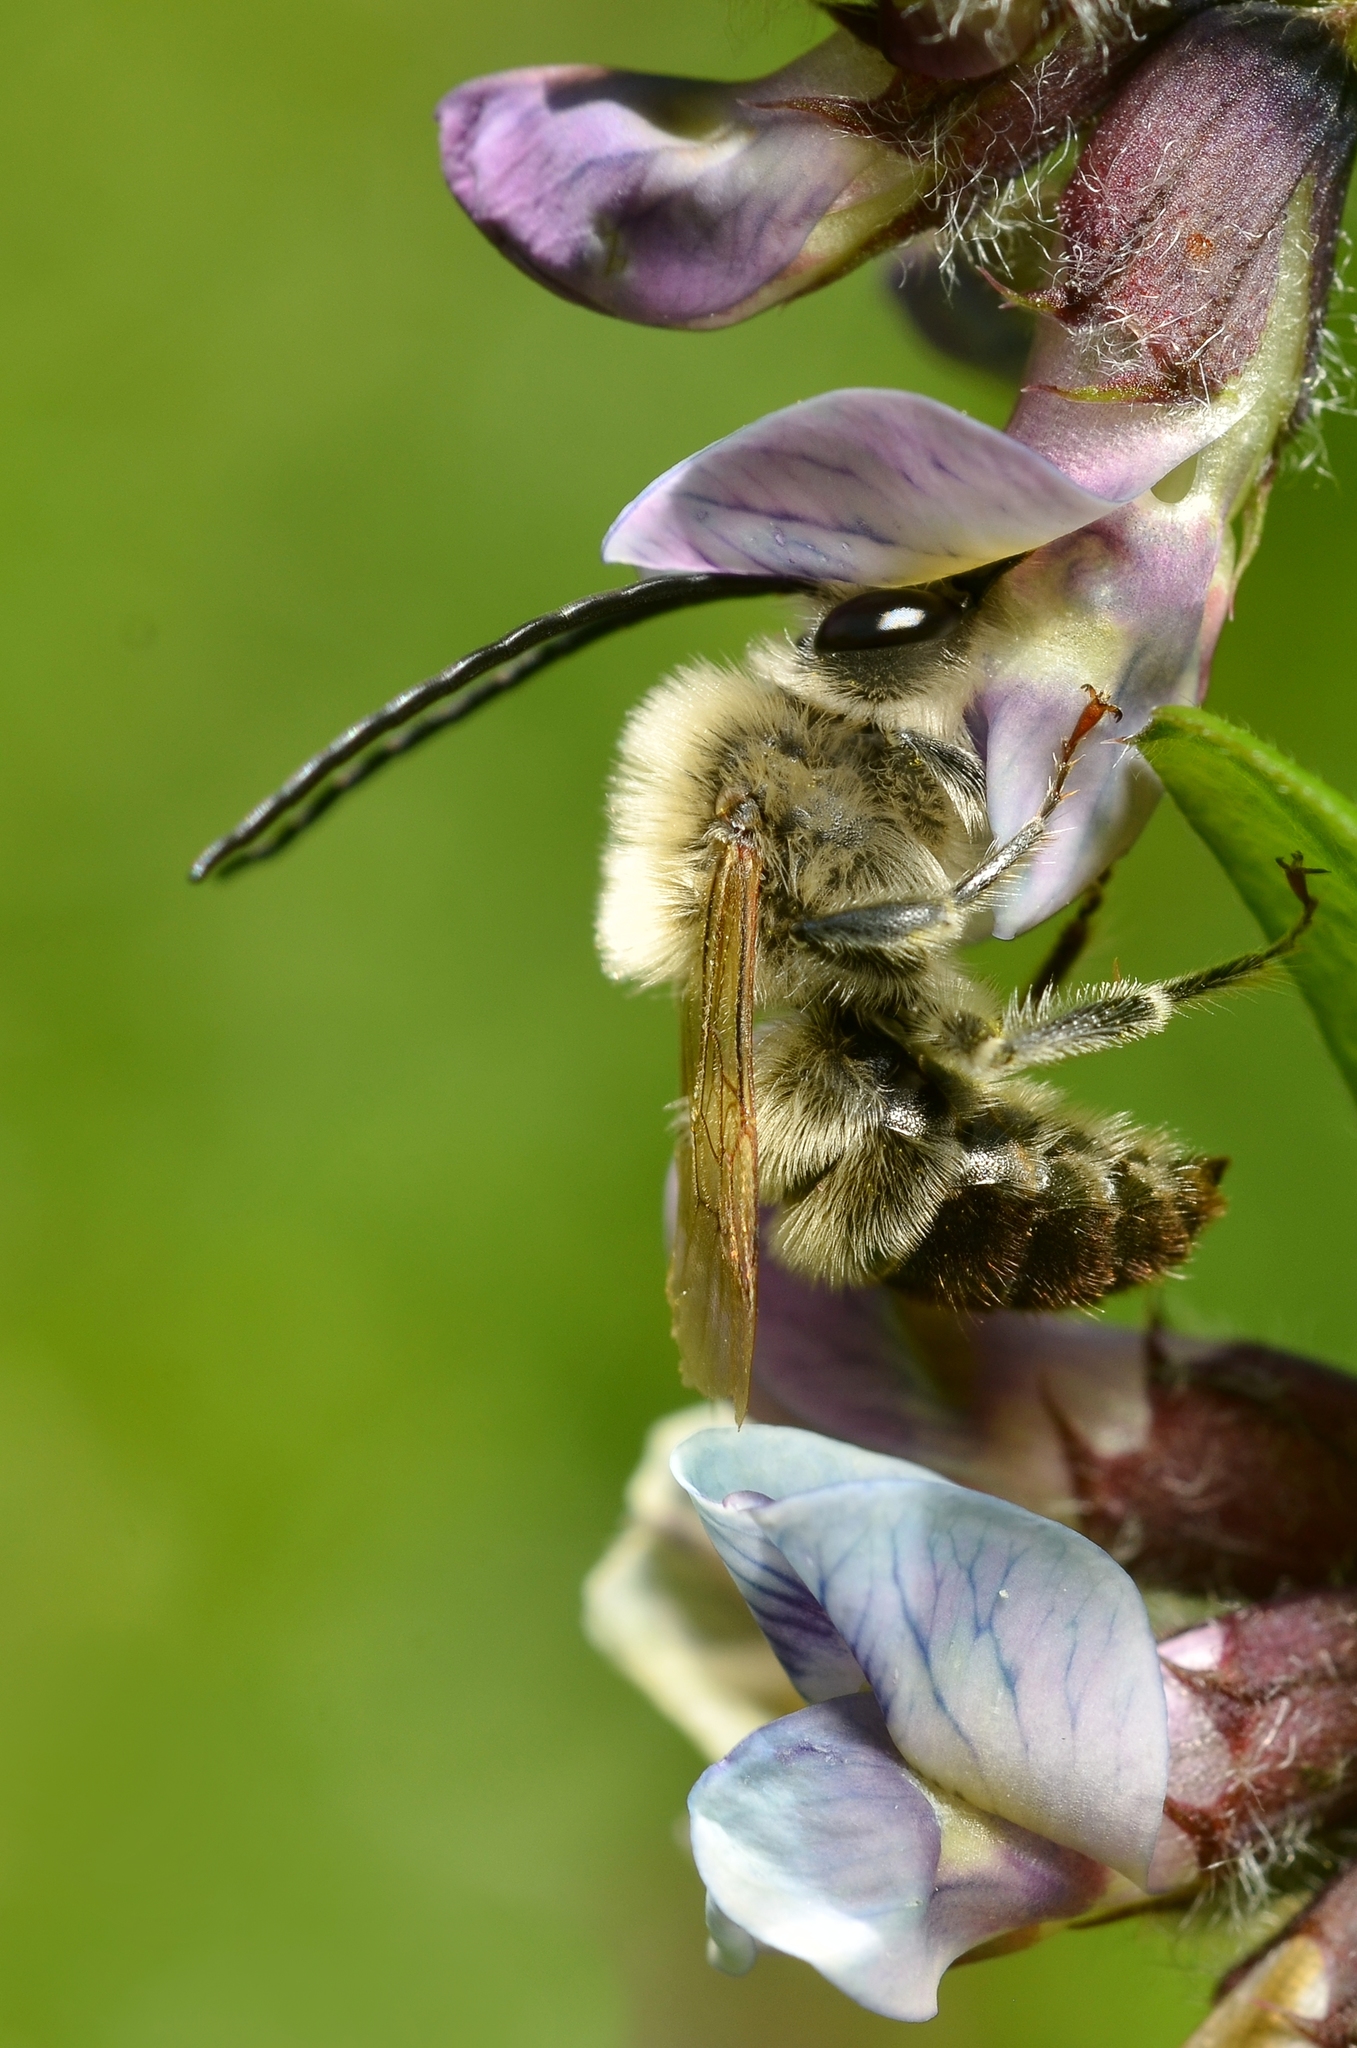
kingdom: Animalia
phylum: Arthropoda
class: Insecta
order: Hymenoptera
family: Apidae
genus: Eucera
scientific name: Eucera nigrescens
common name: Tuberculate long-horned bee
